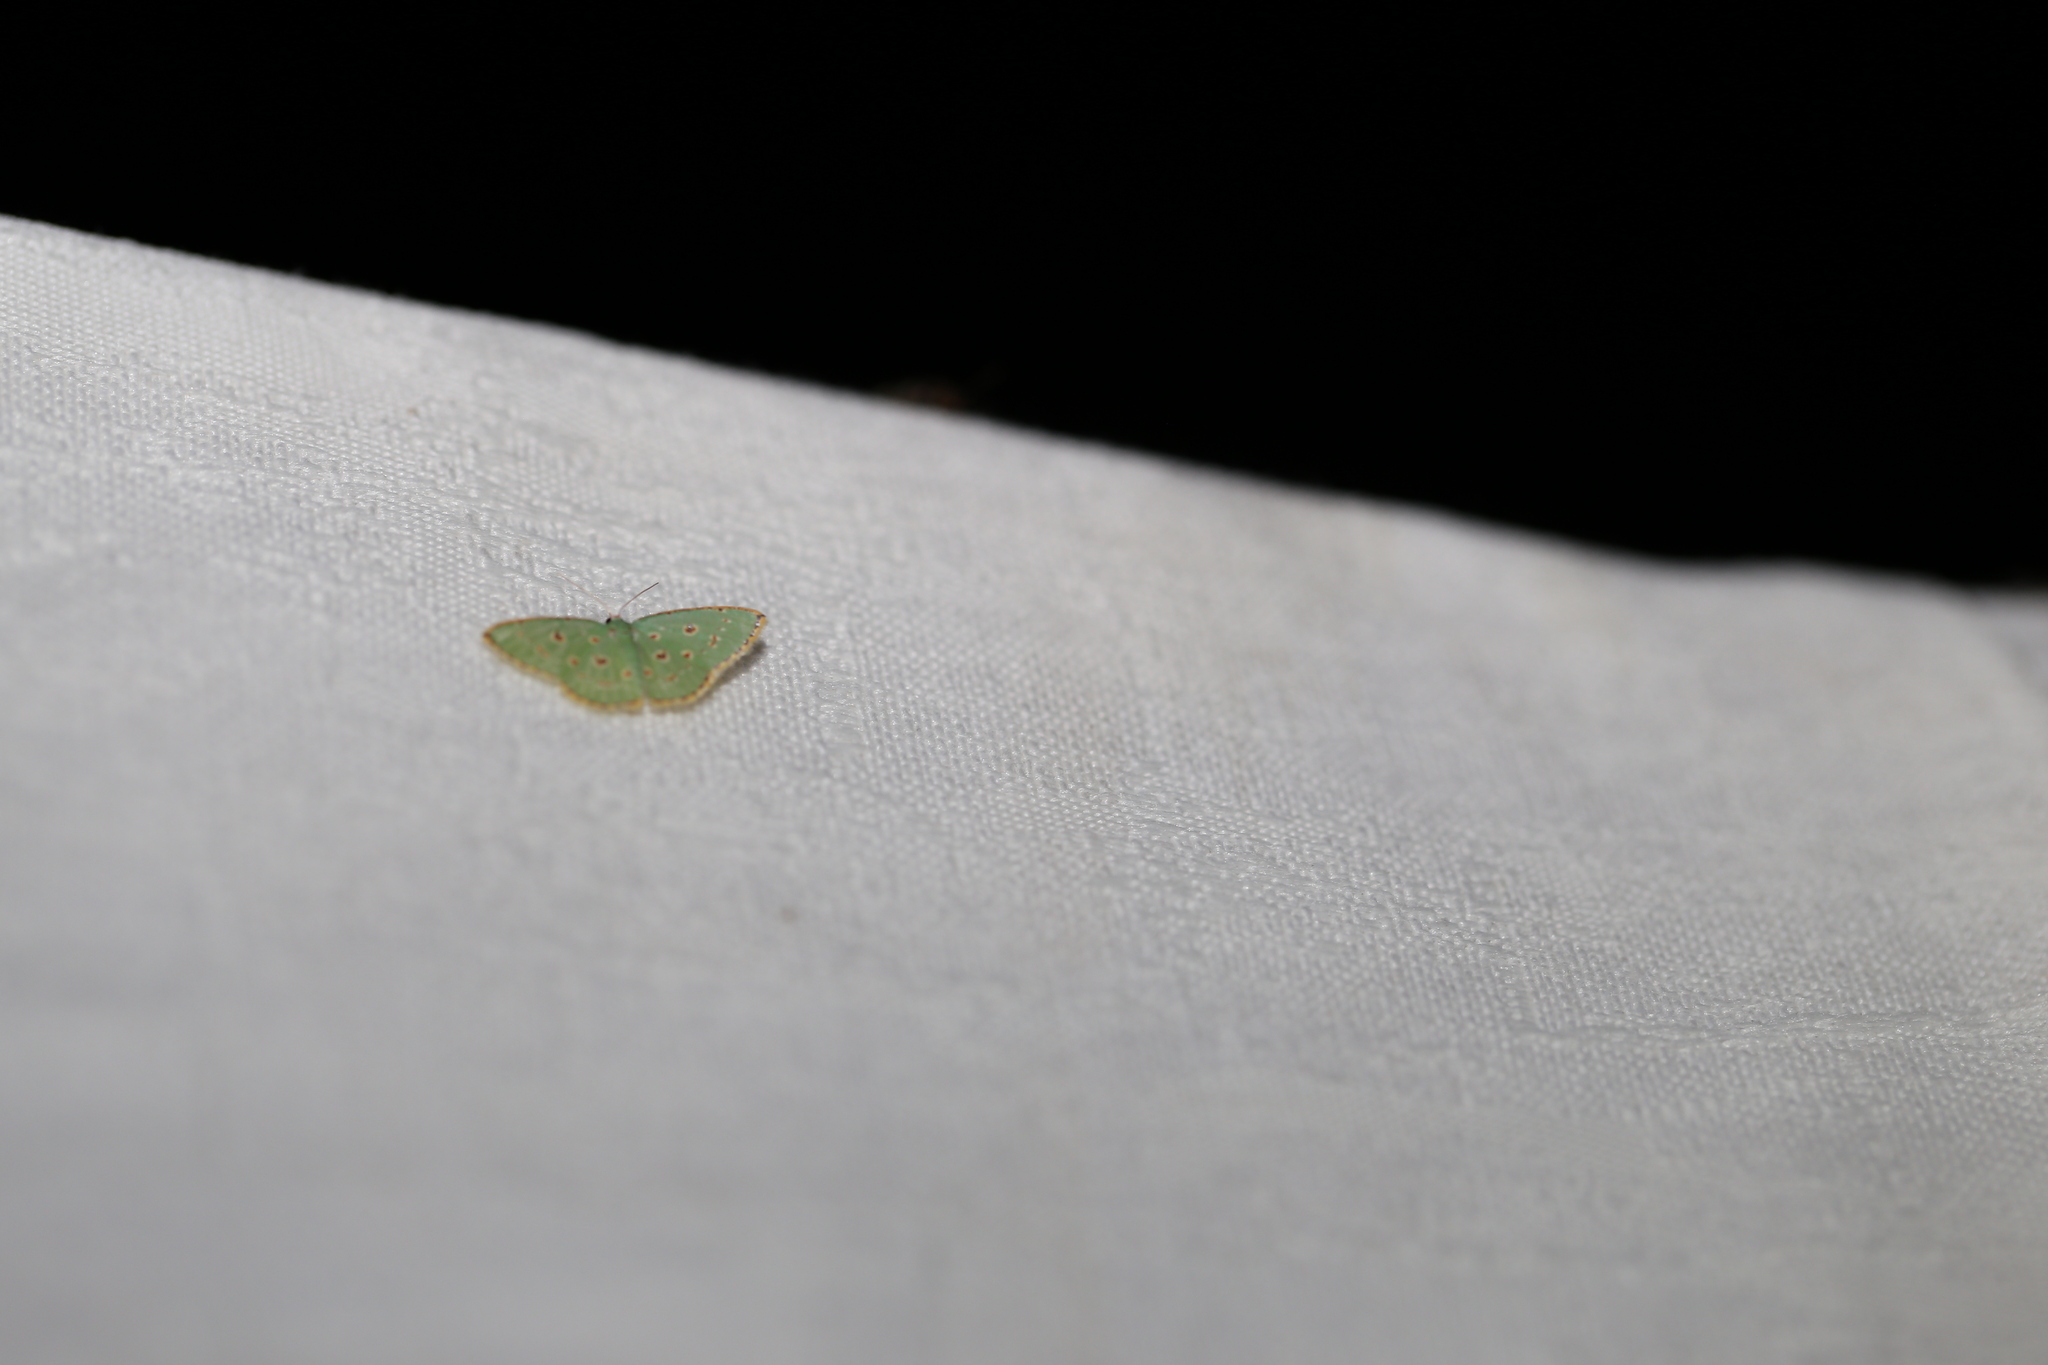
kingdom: Animalia
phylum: Arthropoda
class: Insecta
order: Lepidoptera
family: Geometridae
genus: Comostola
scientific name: Comostola laesaria
